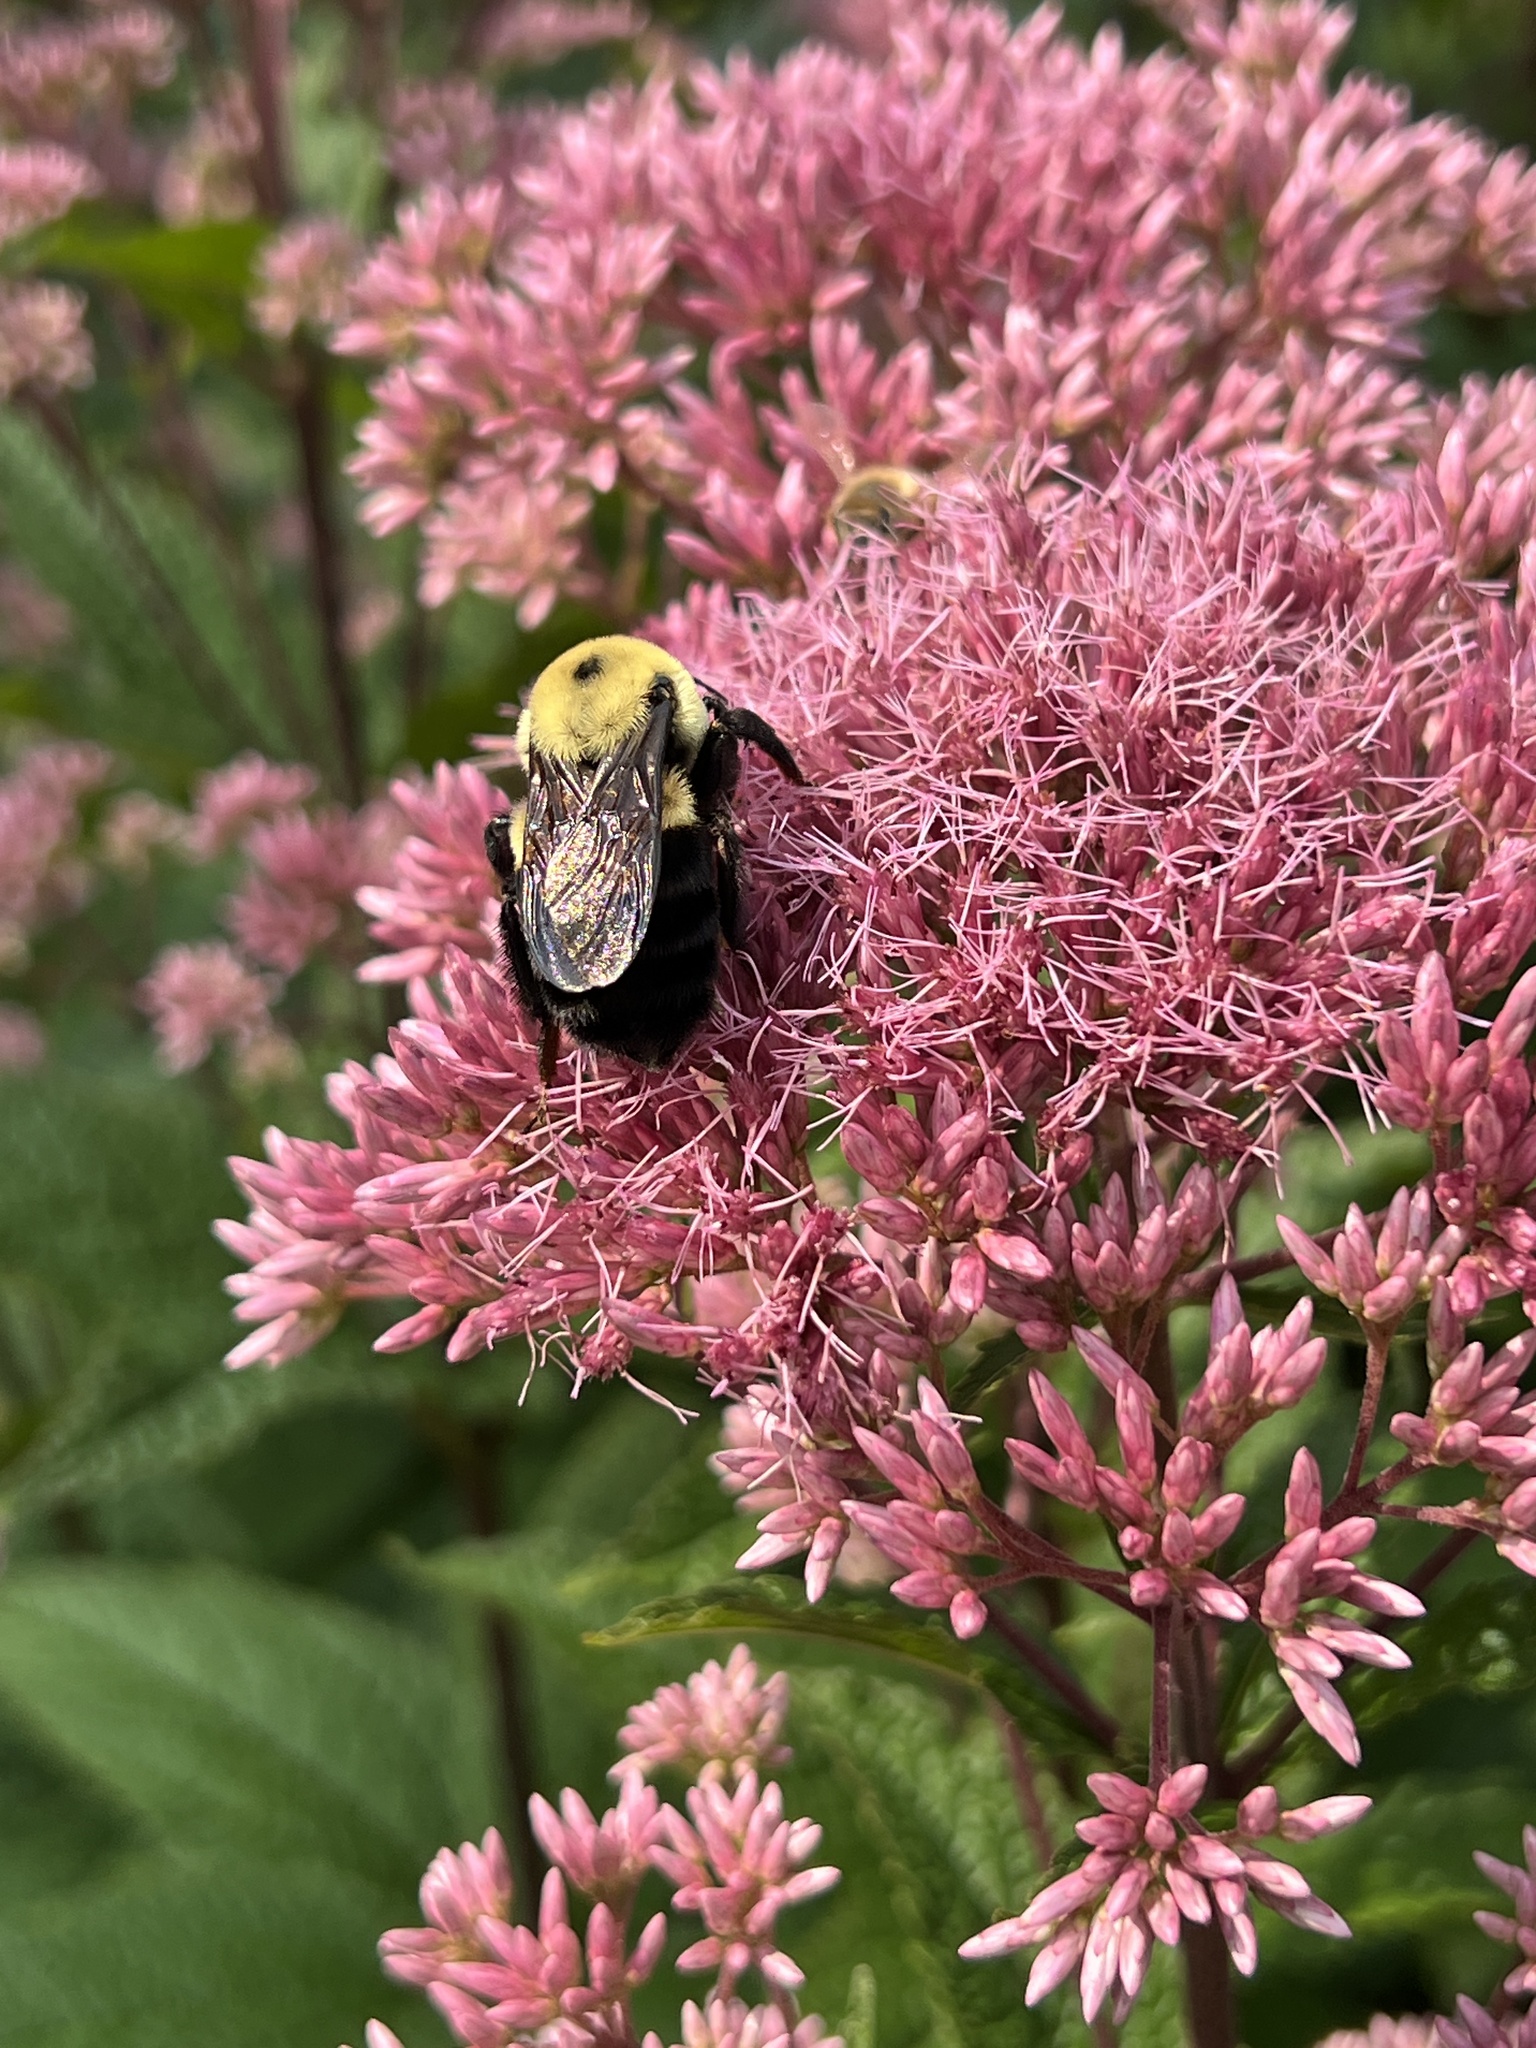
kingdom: Animalia
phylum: Arthropoda
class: Insecta
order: Hymenoptera
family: Apidae
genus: Bombus
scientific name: Bombus griseocollis
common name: Brown-belted bumble bee
